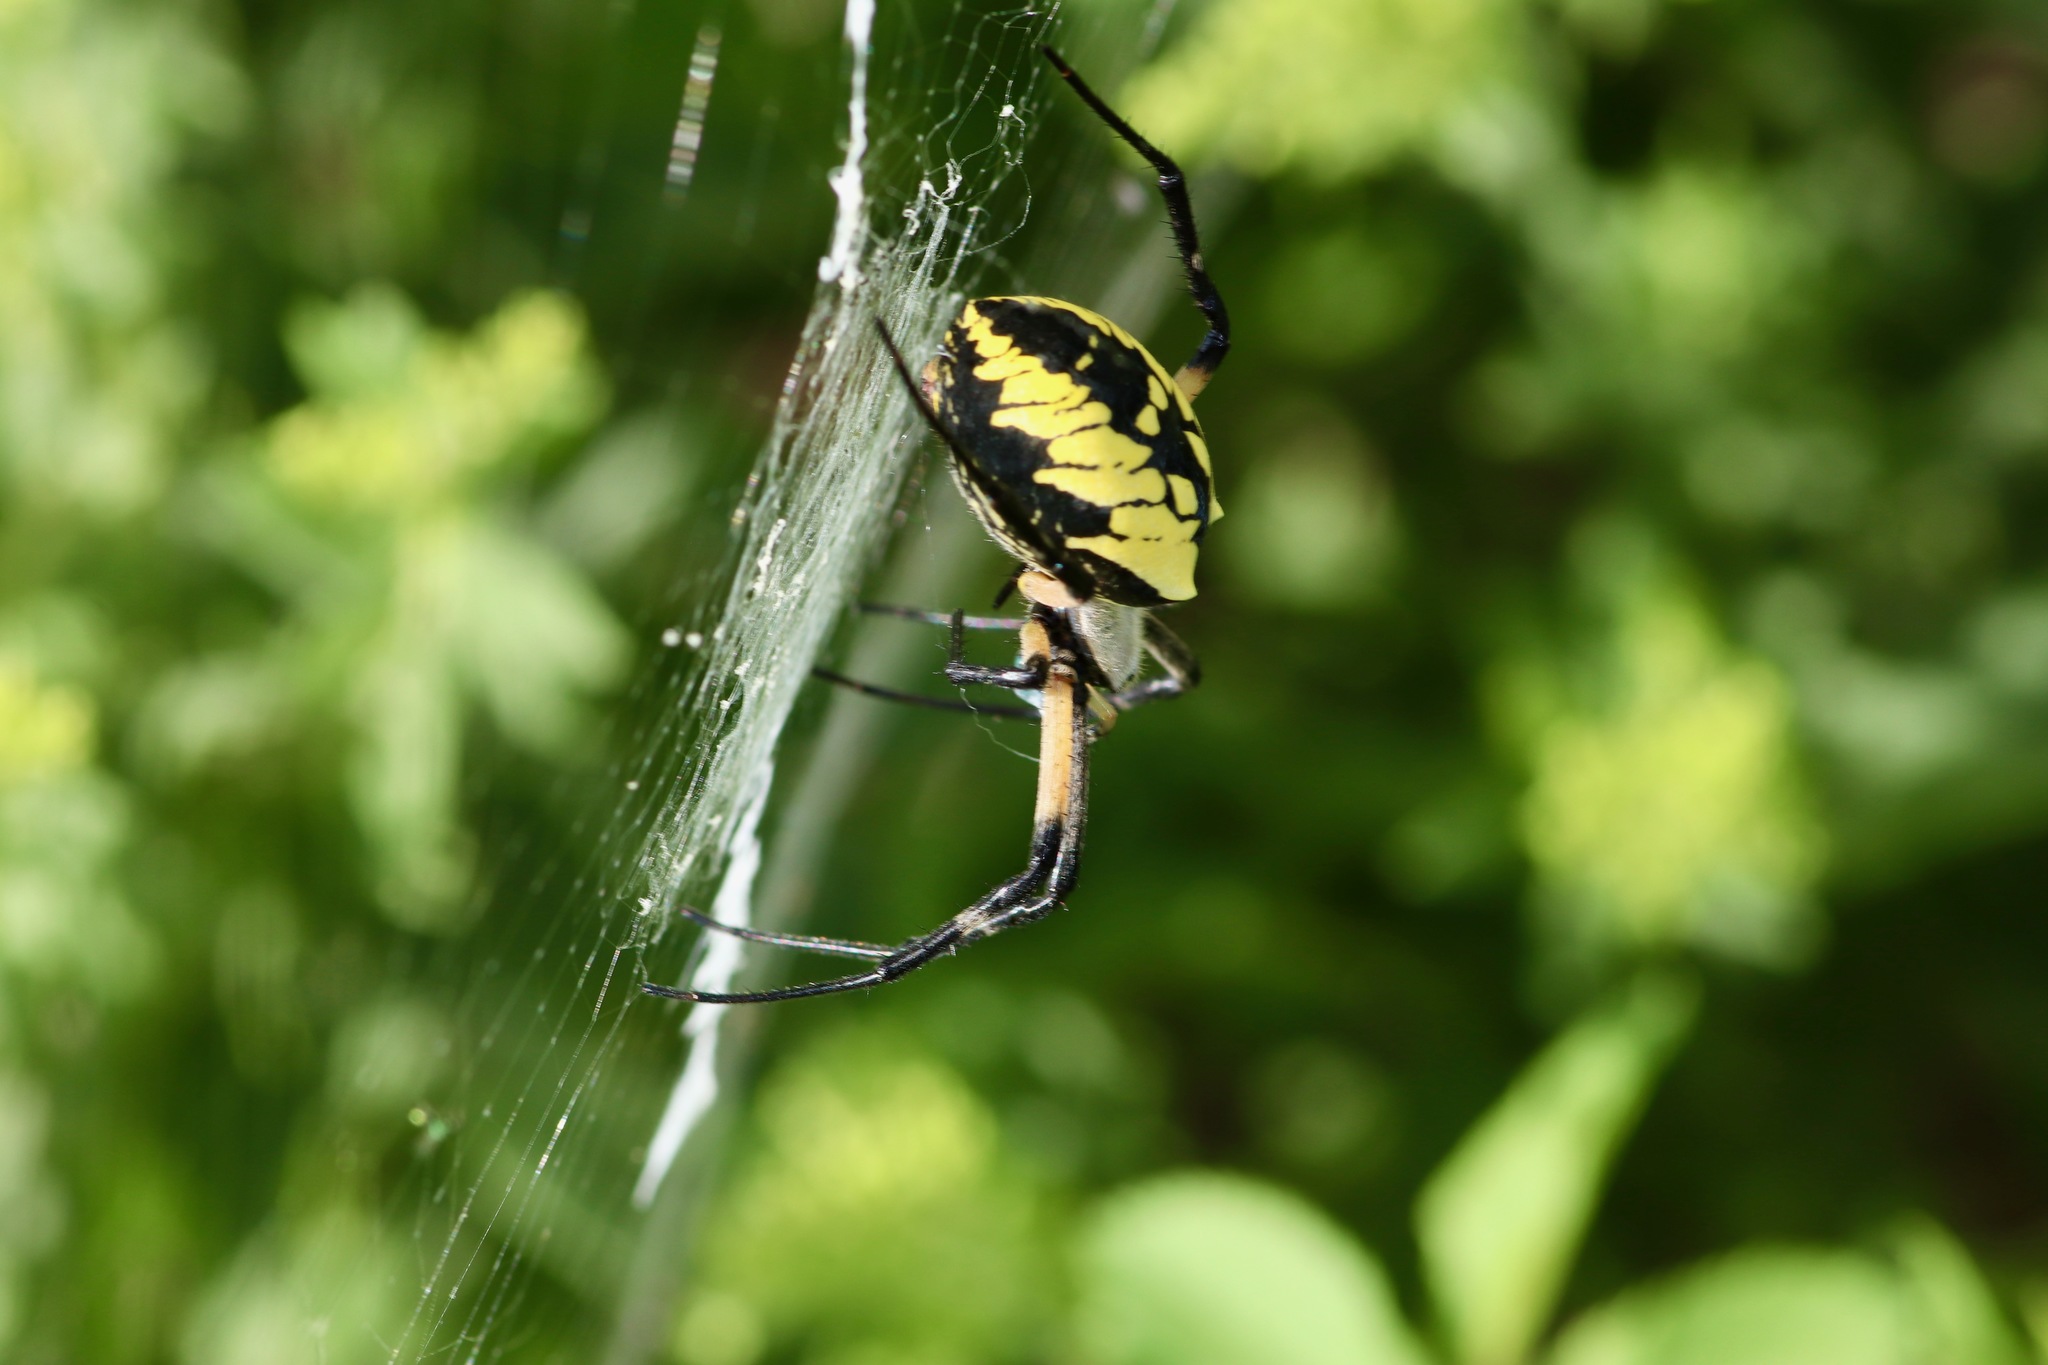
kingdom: Animalia
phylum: Arthropoda
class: Arachnida
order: Araneae
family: Araneidae
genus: Argiope
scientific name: Argiope aurantia
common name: Orb weavers
